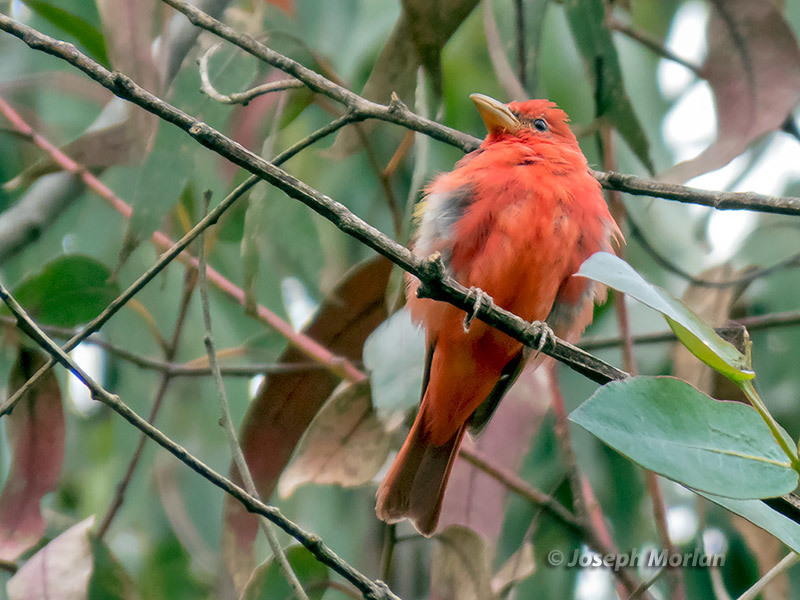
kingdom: Animalia
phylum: Chordata
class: Aves
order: Passeriformes
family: Cardinalidae
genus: Piranga
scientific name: Piranga rubra
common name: Summer tanager
